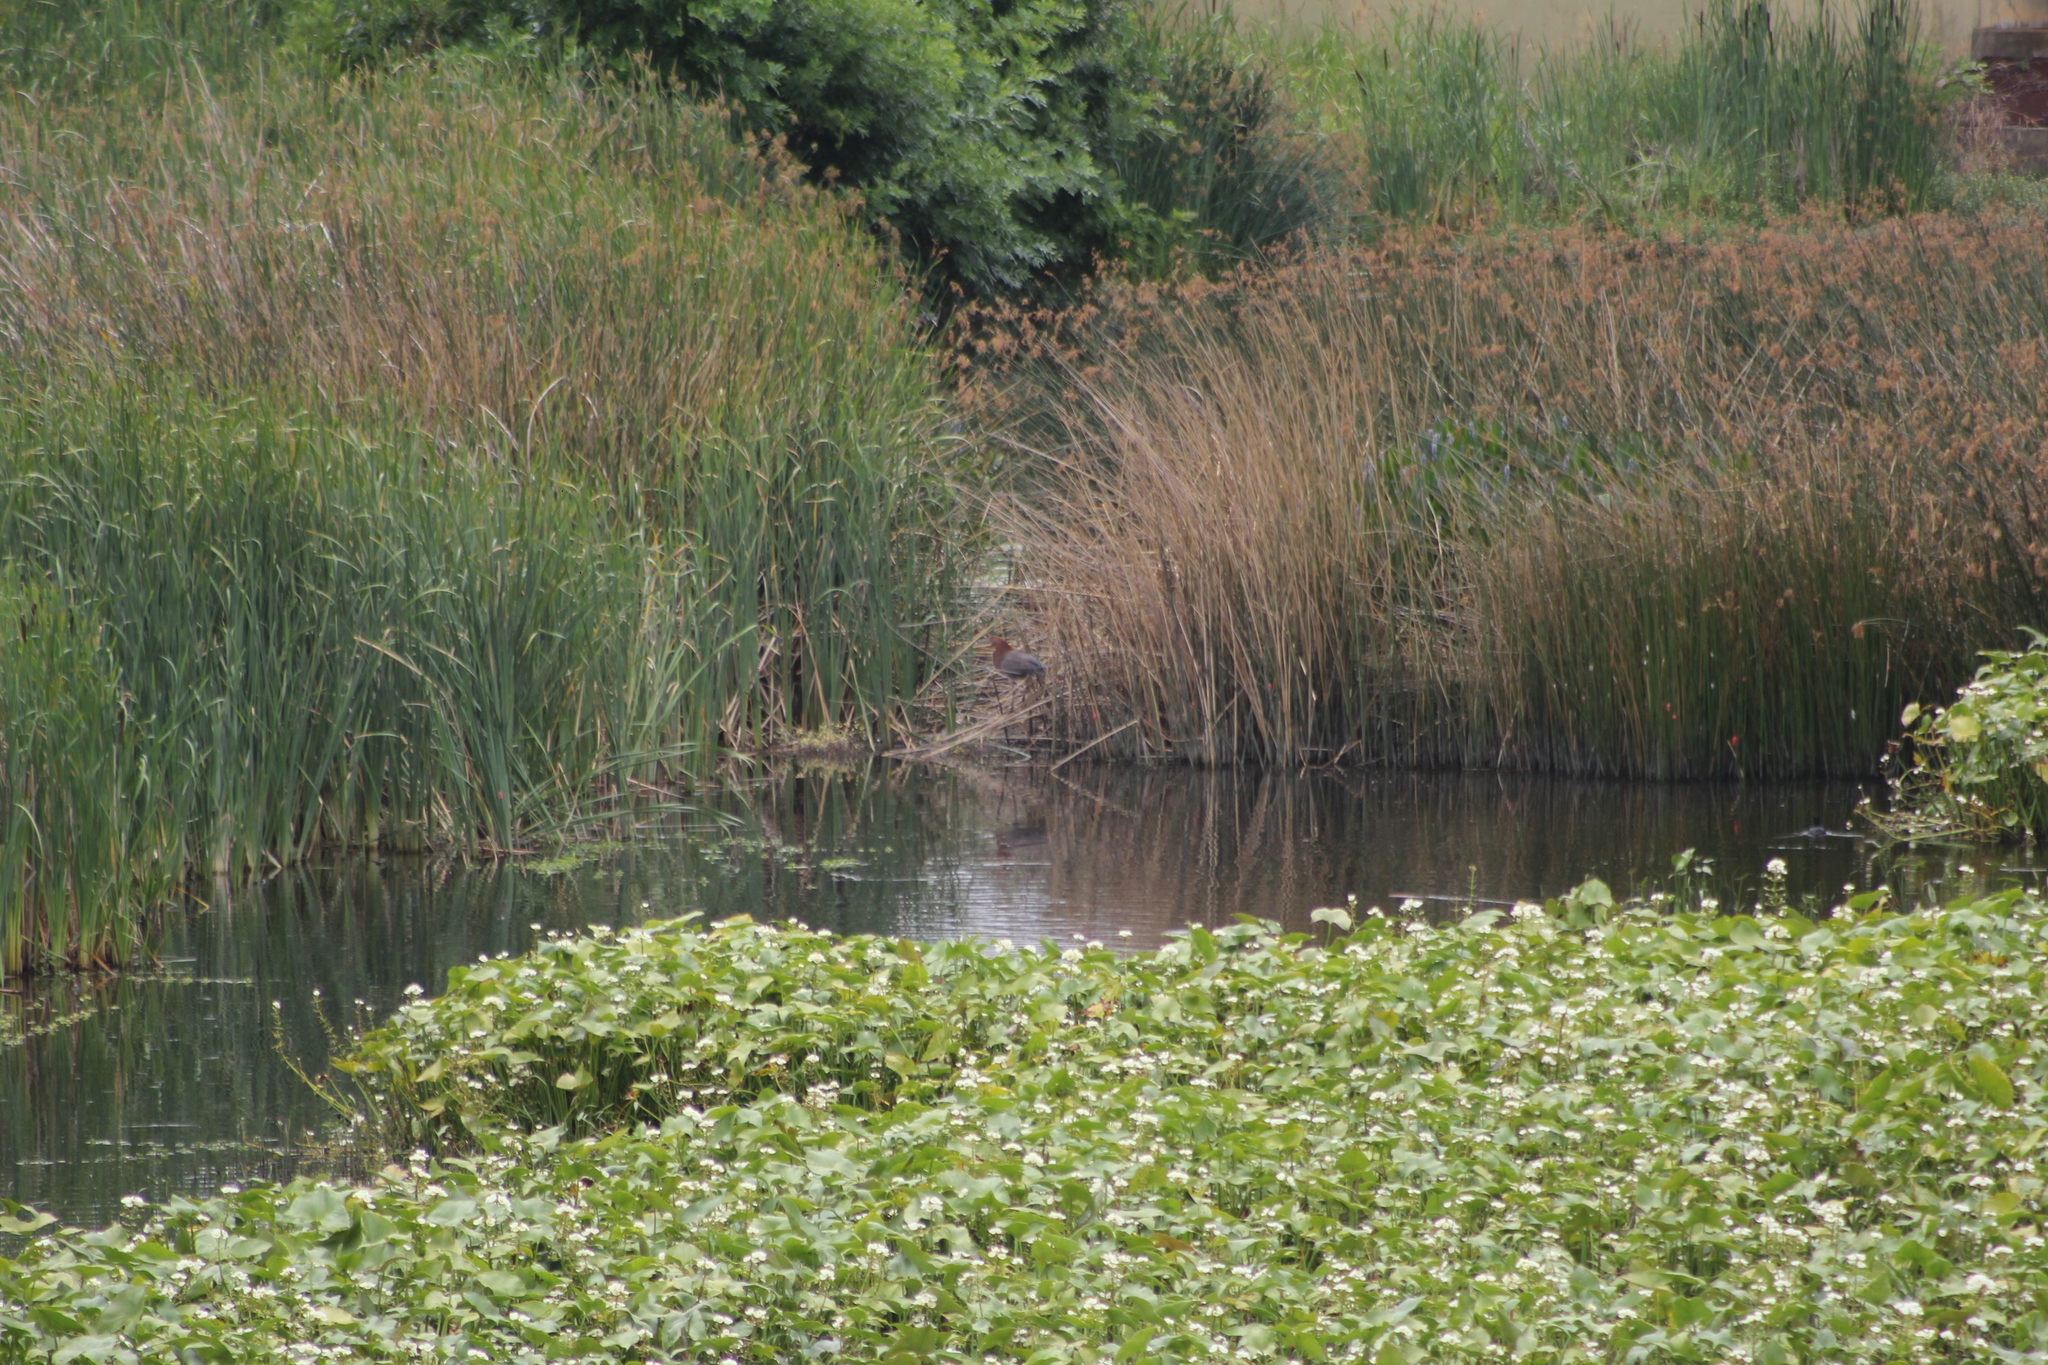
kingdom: Animalia
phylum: Chordata
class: Aves
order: Pelecaniformes
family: Ardeidae
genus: Tigrisoma
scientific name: Tigrisoma lineatum
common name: Rufescent tiger-heron
